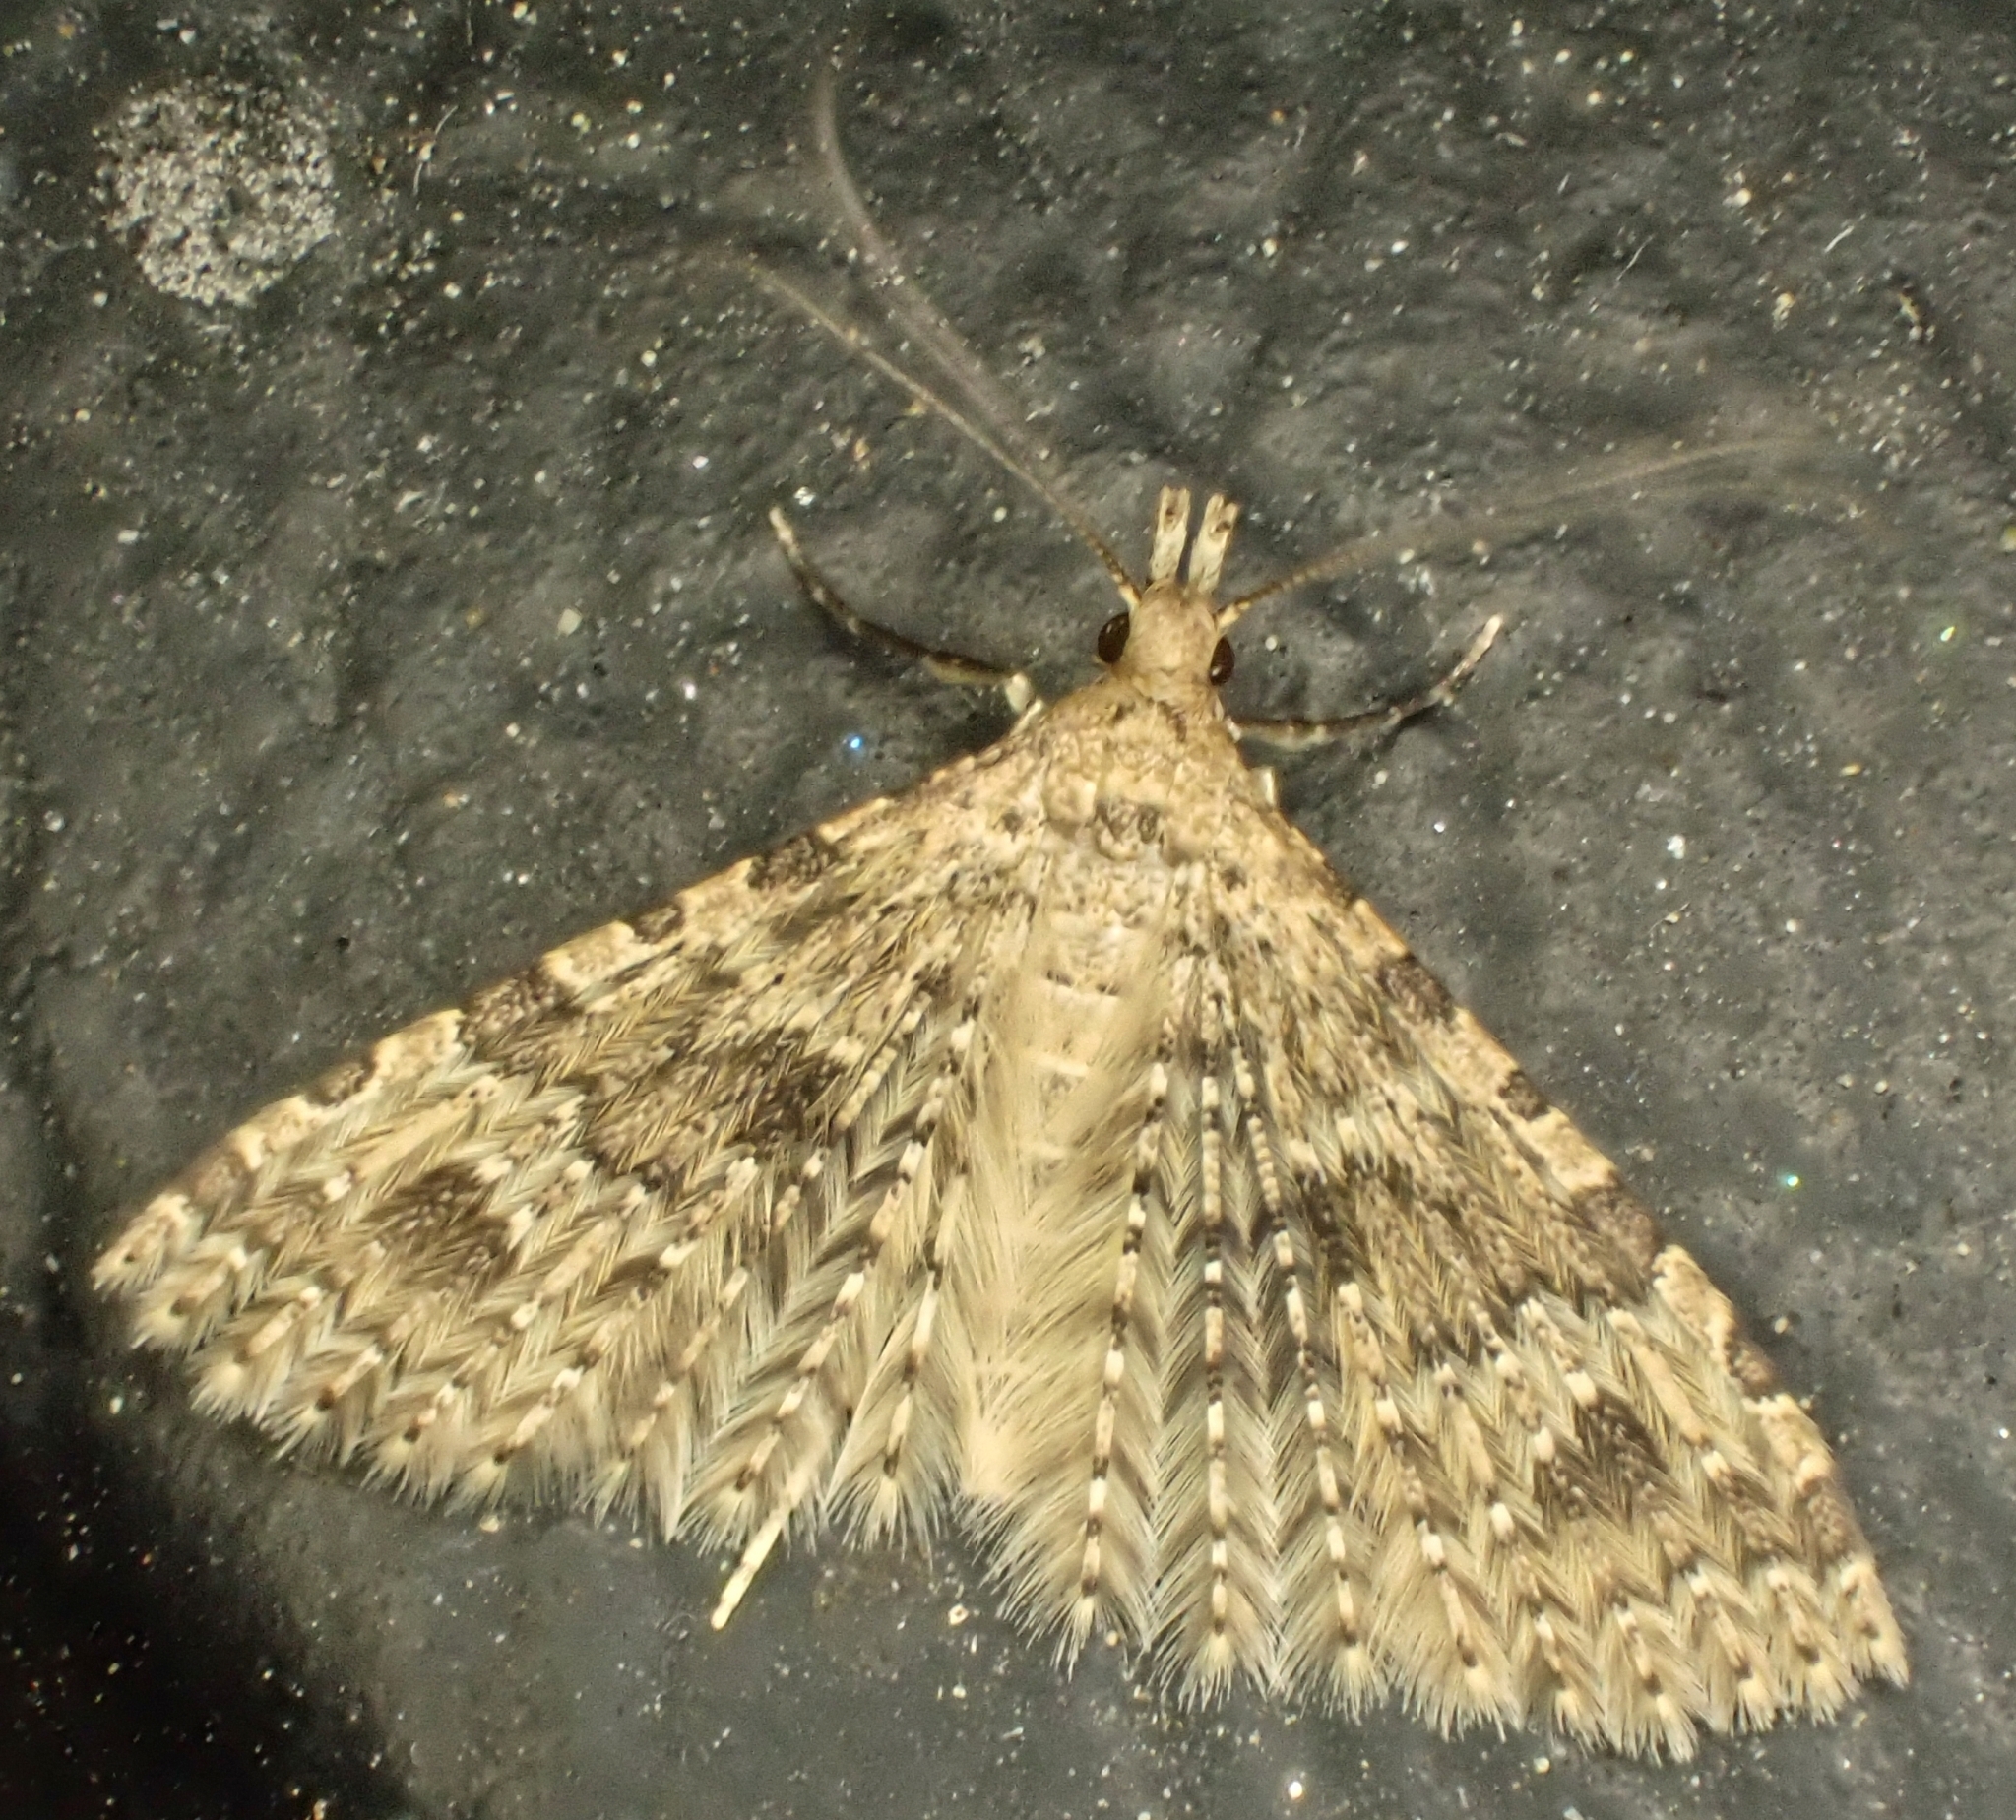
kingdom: Animalia
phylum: Arthropoda
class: Insecta
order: Lepidoptera
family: Alucitidae
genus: Alucita
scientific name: Alucita hexadactyla
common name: Twenty-plume moth
